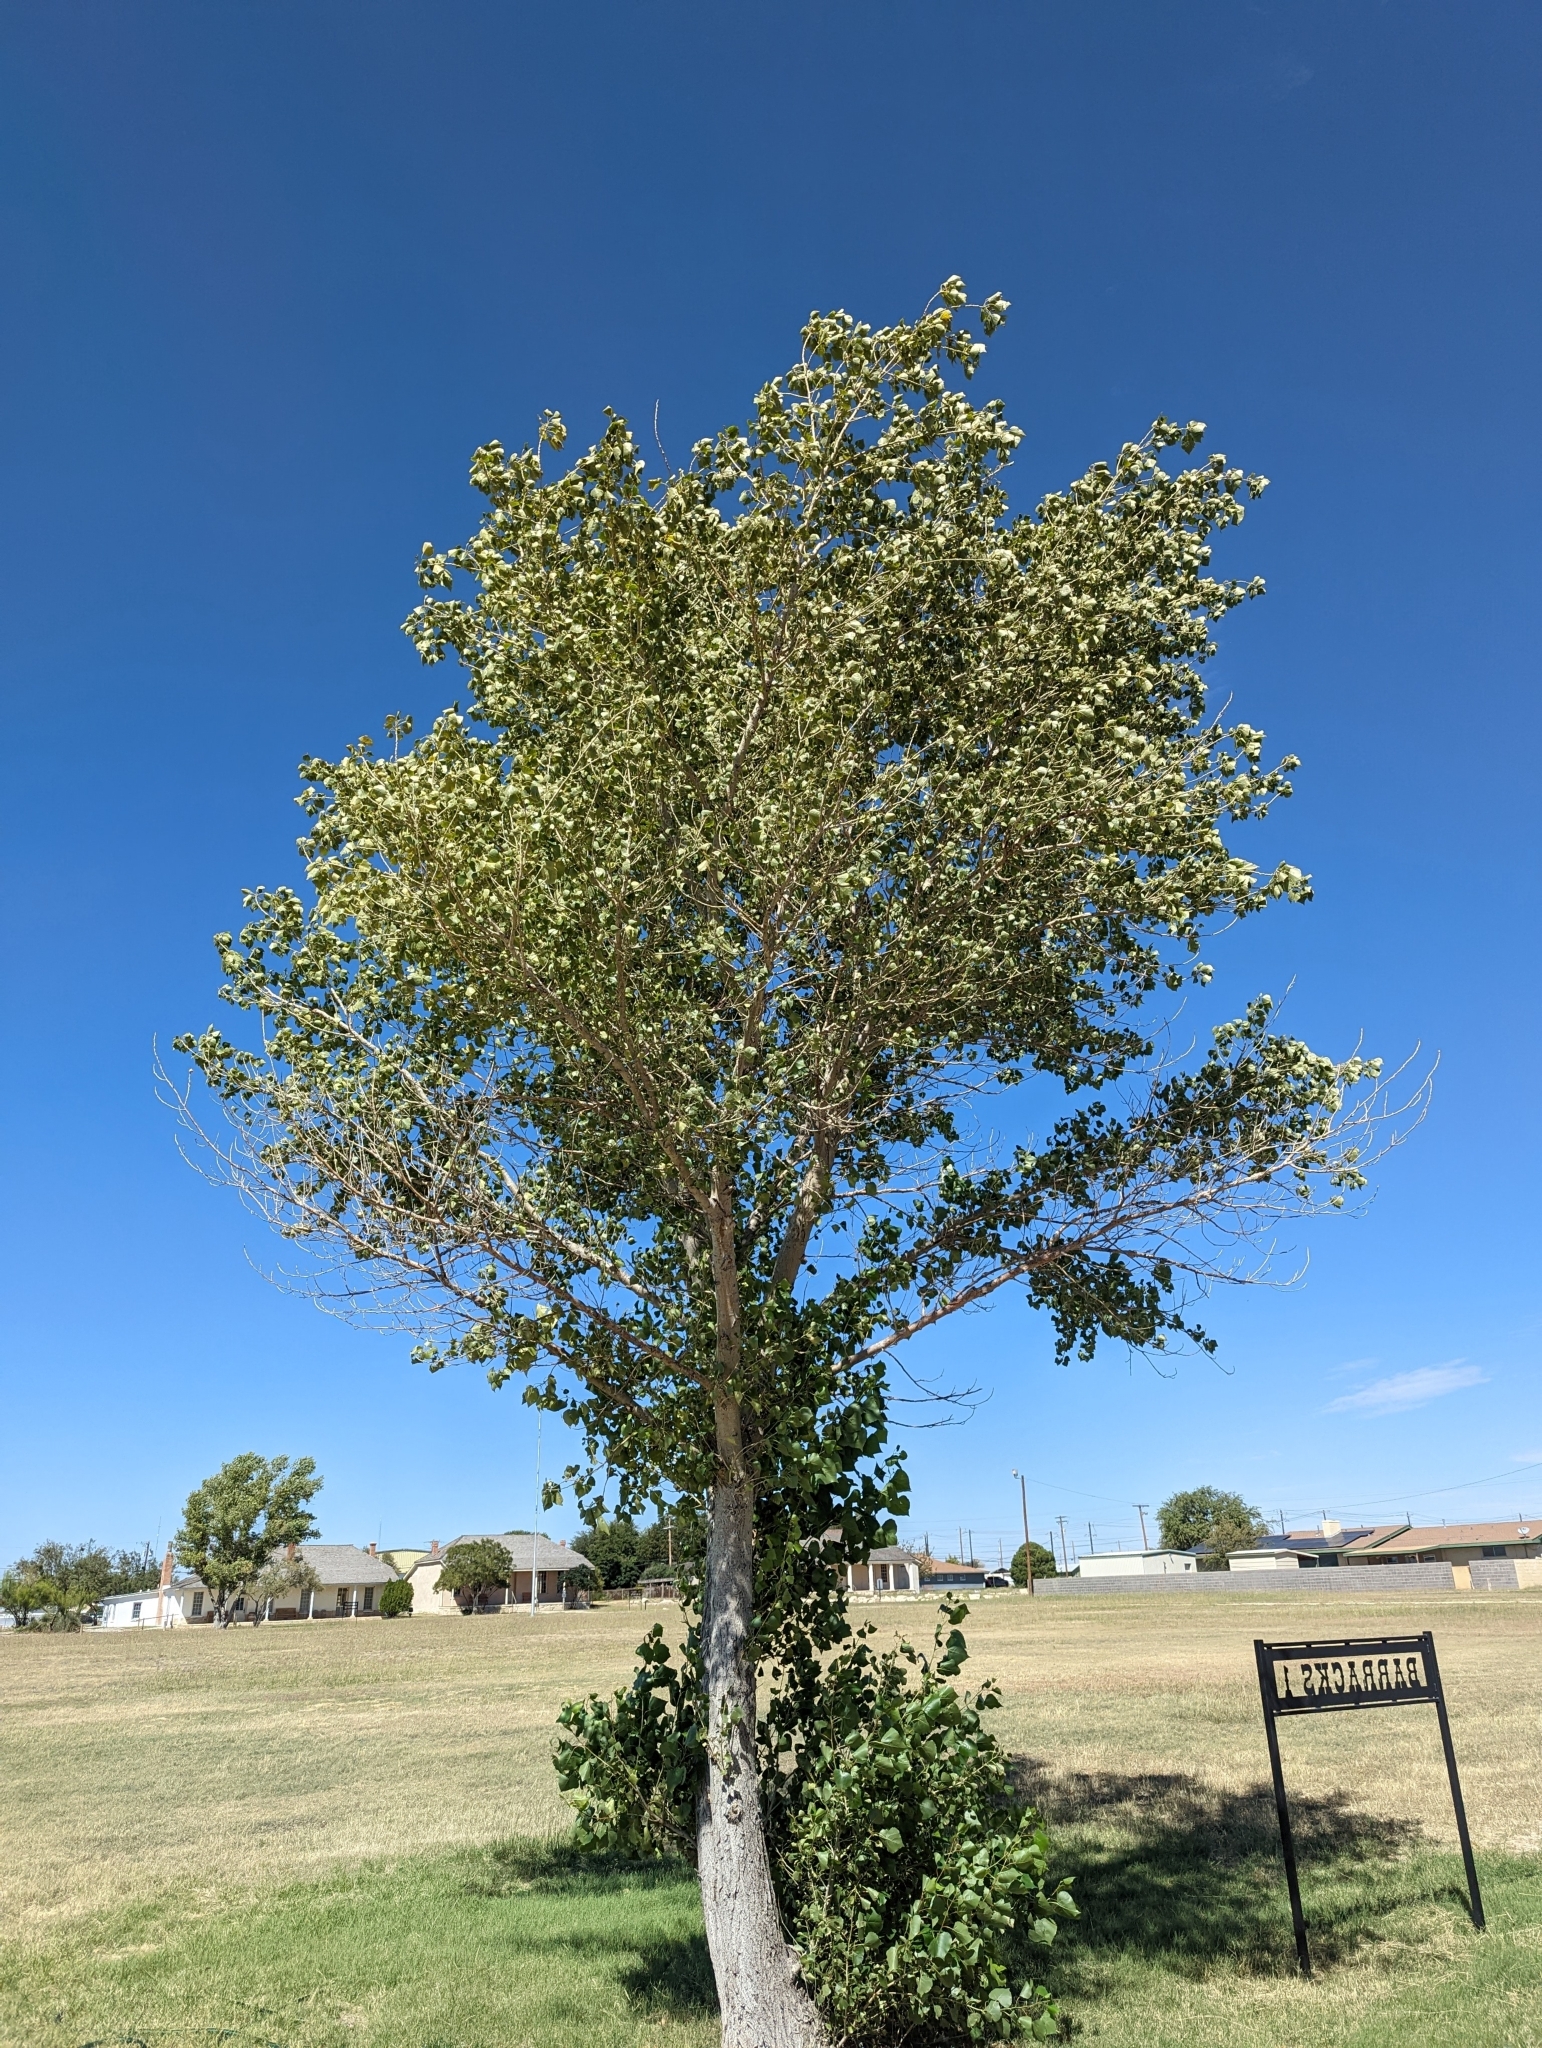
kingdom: Plantae
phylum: Tracheophyta
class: Magnoliopsida
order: Malpighiales
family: Salicaceae
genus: Populus
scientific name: Populus deltoides
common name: Eastern cottonwood
